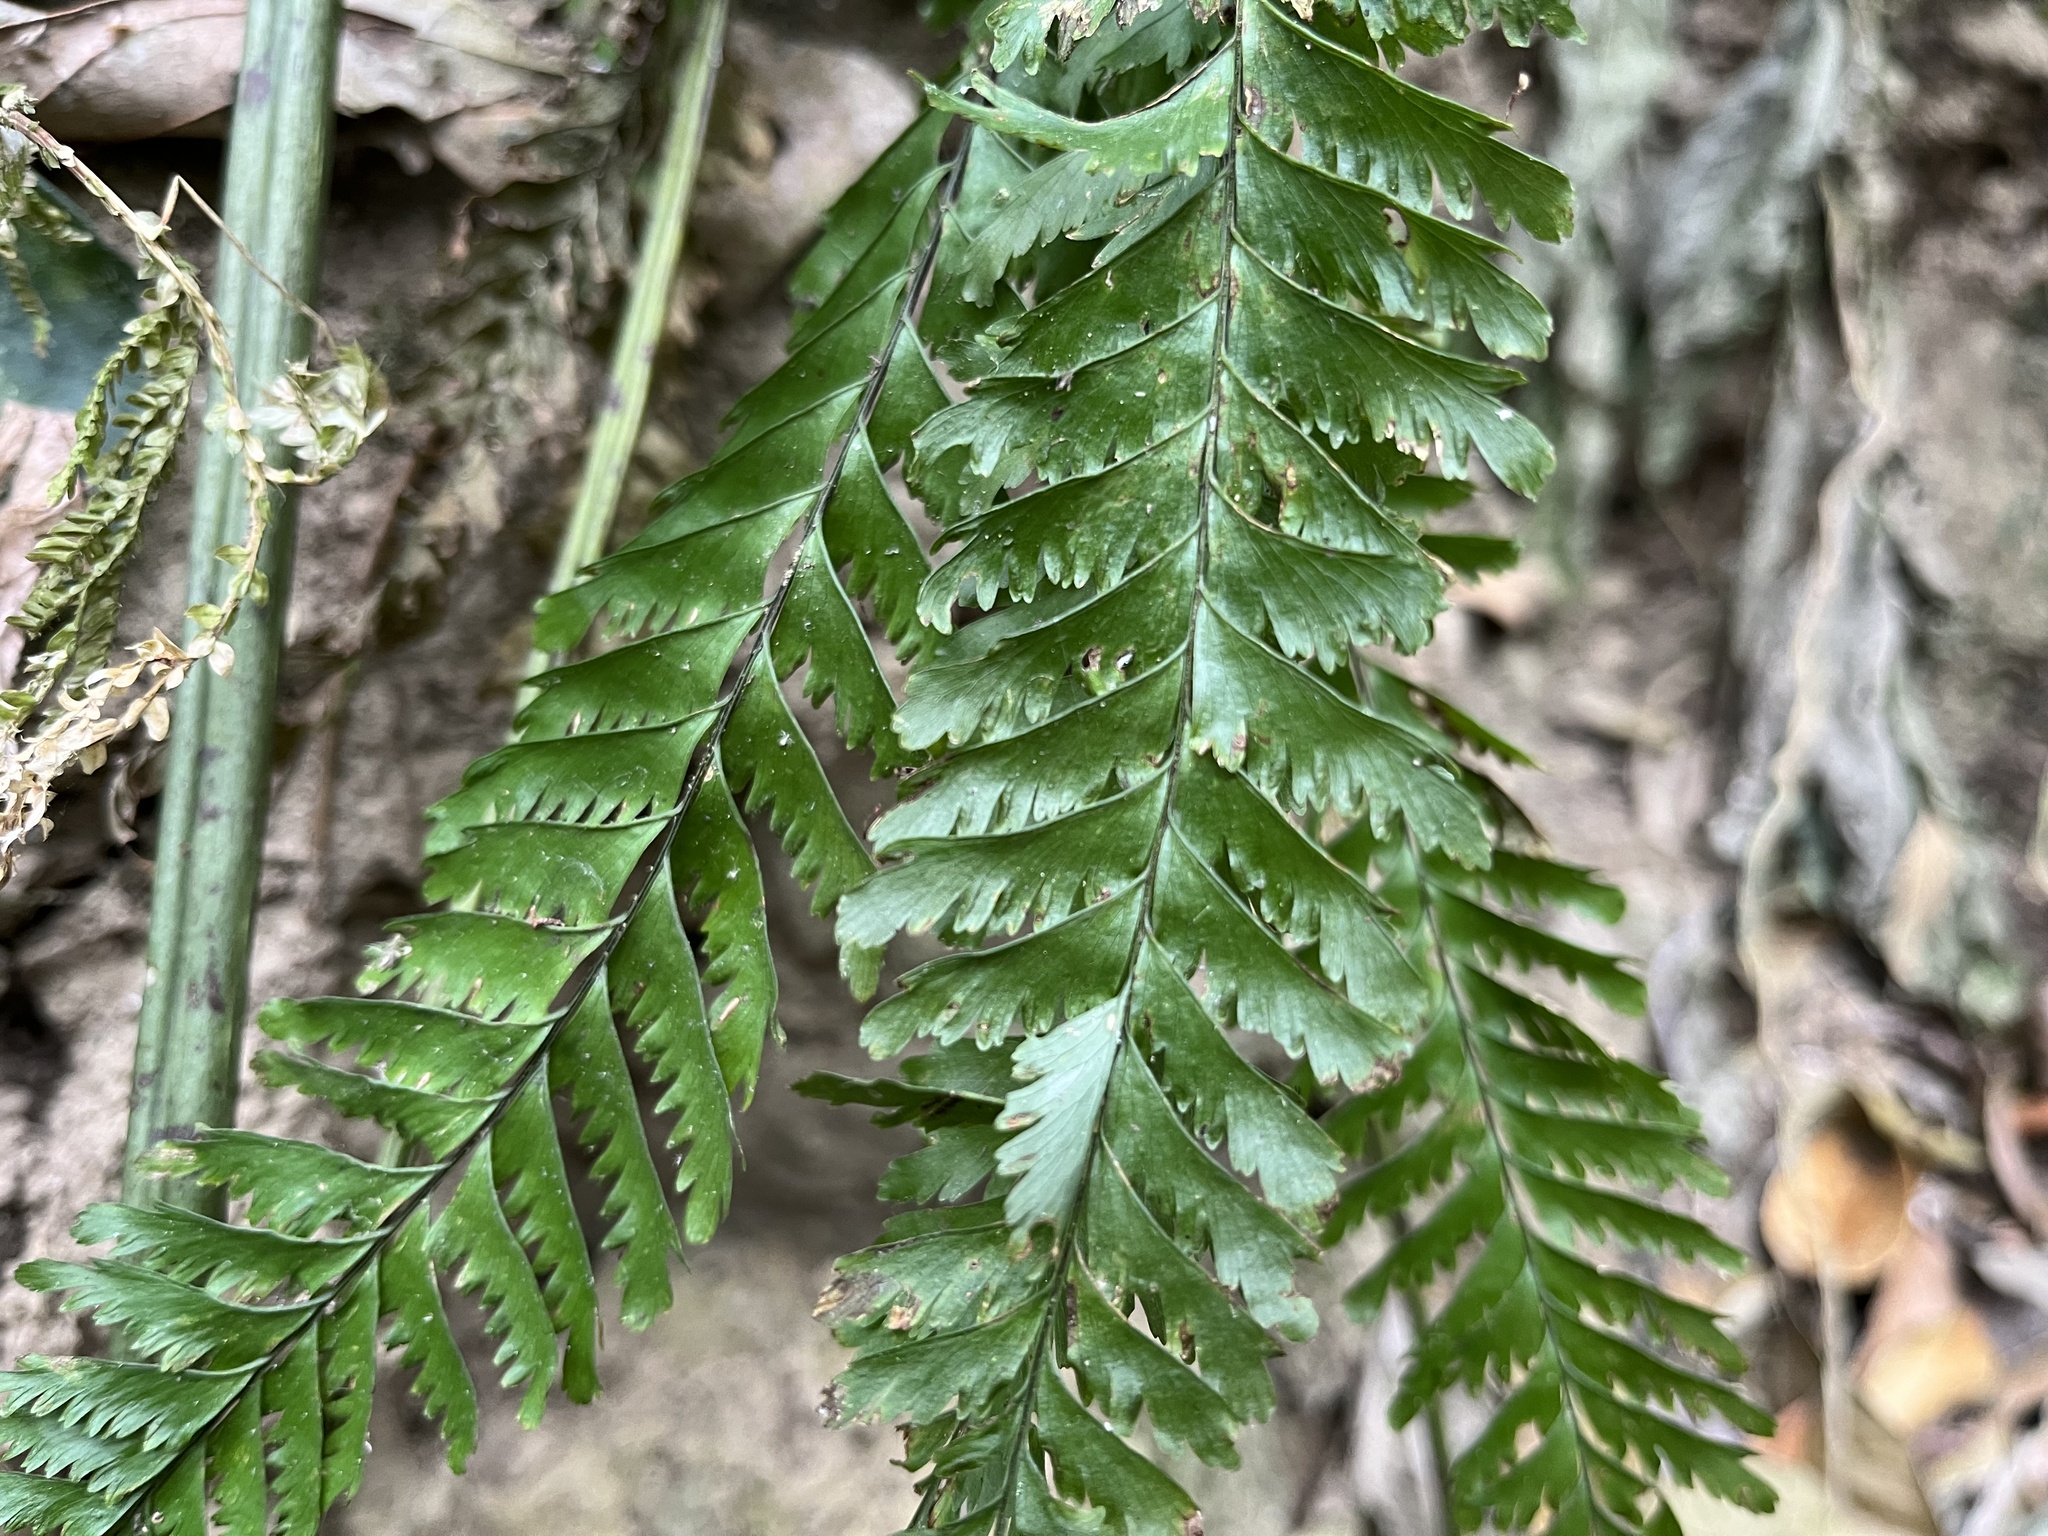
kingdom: Plantae
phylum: Tracheophyta
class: Polypodiopsida
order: Polypodiales
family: Aspleniaceae
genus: Hymenasplenium
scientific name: Hymenasplenium cheilosorum
